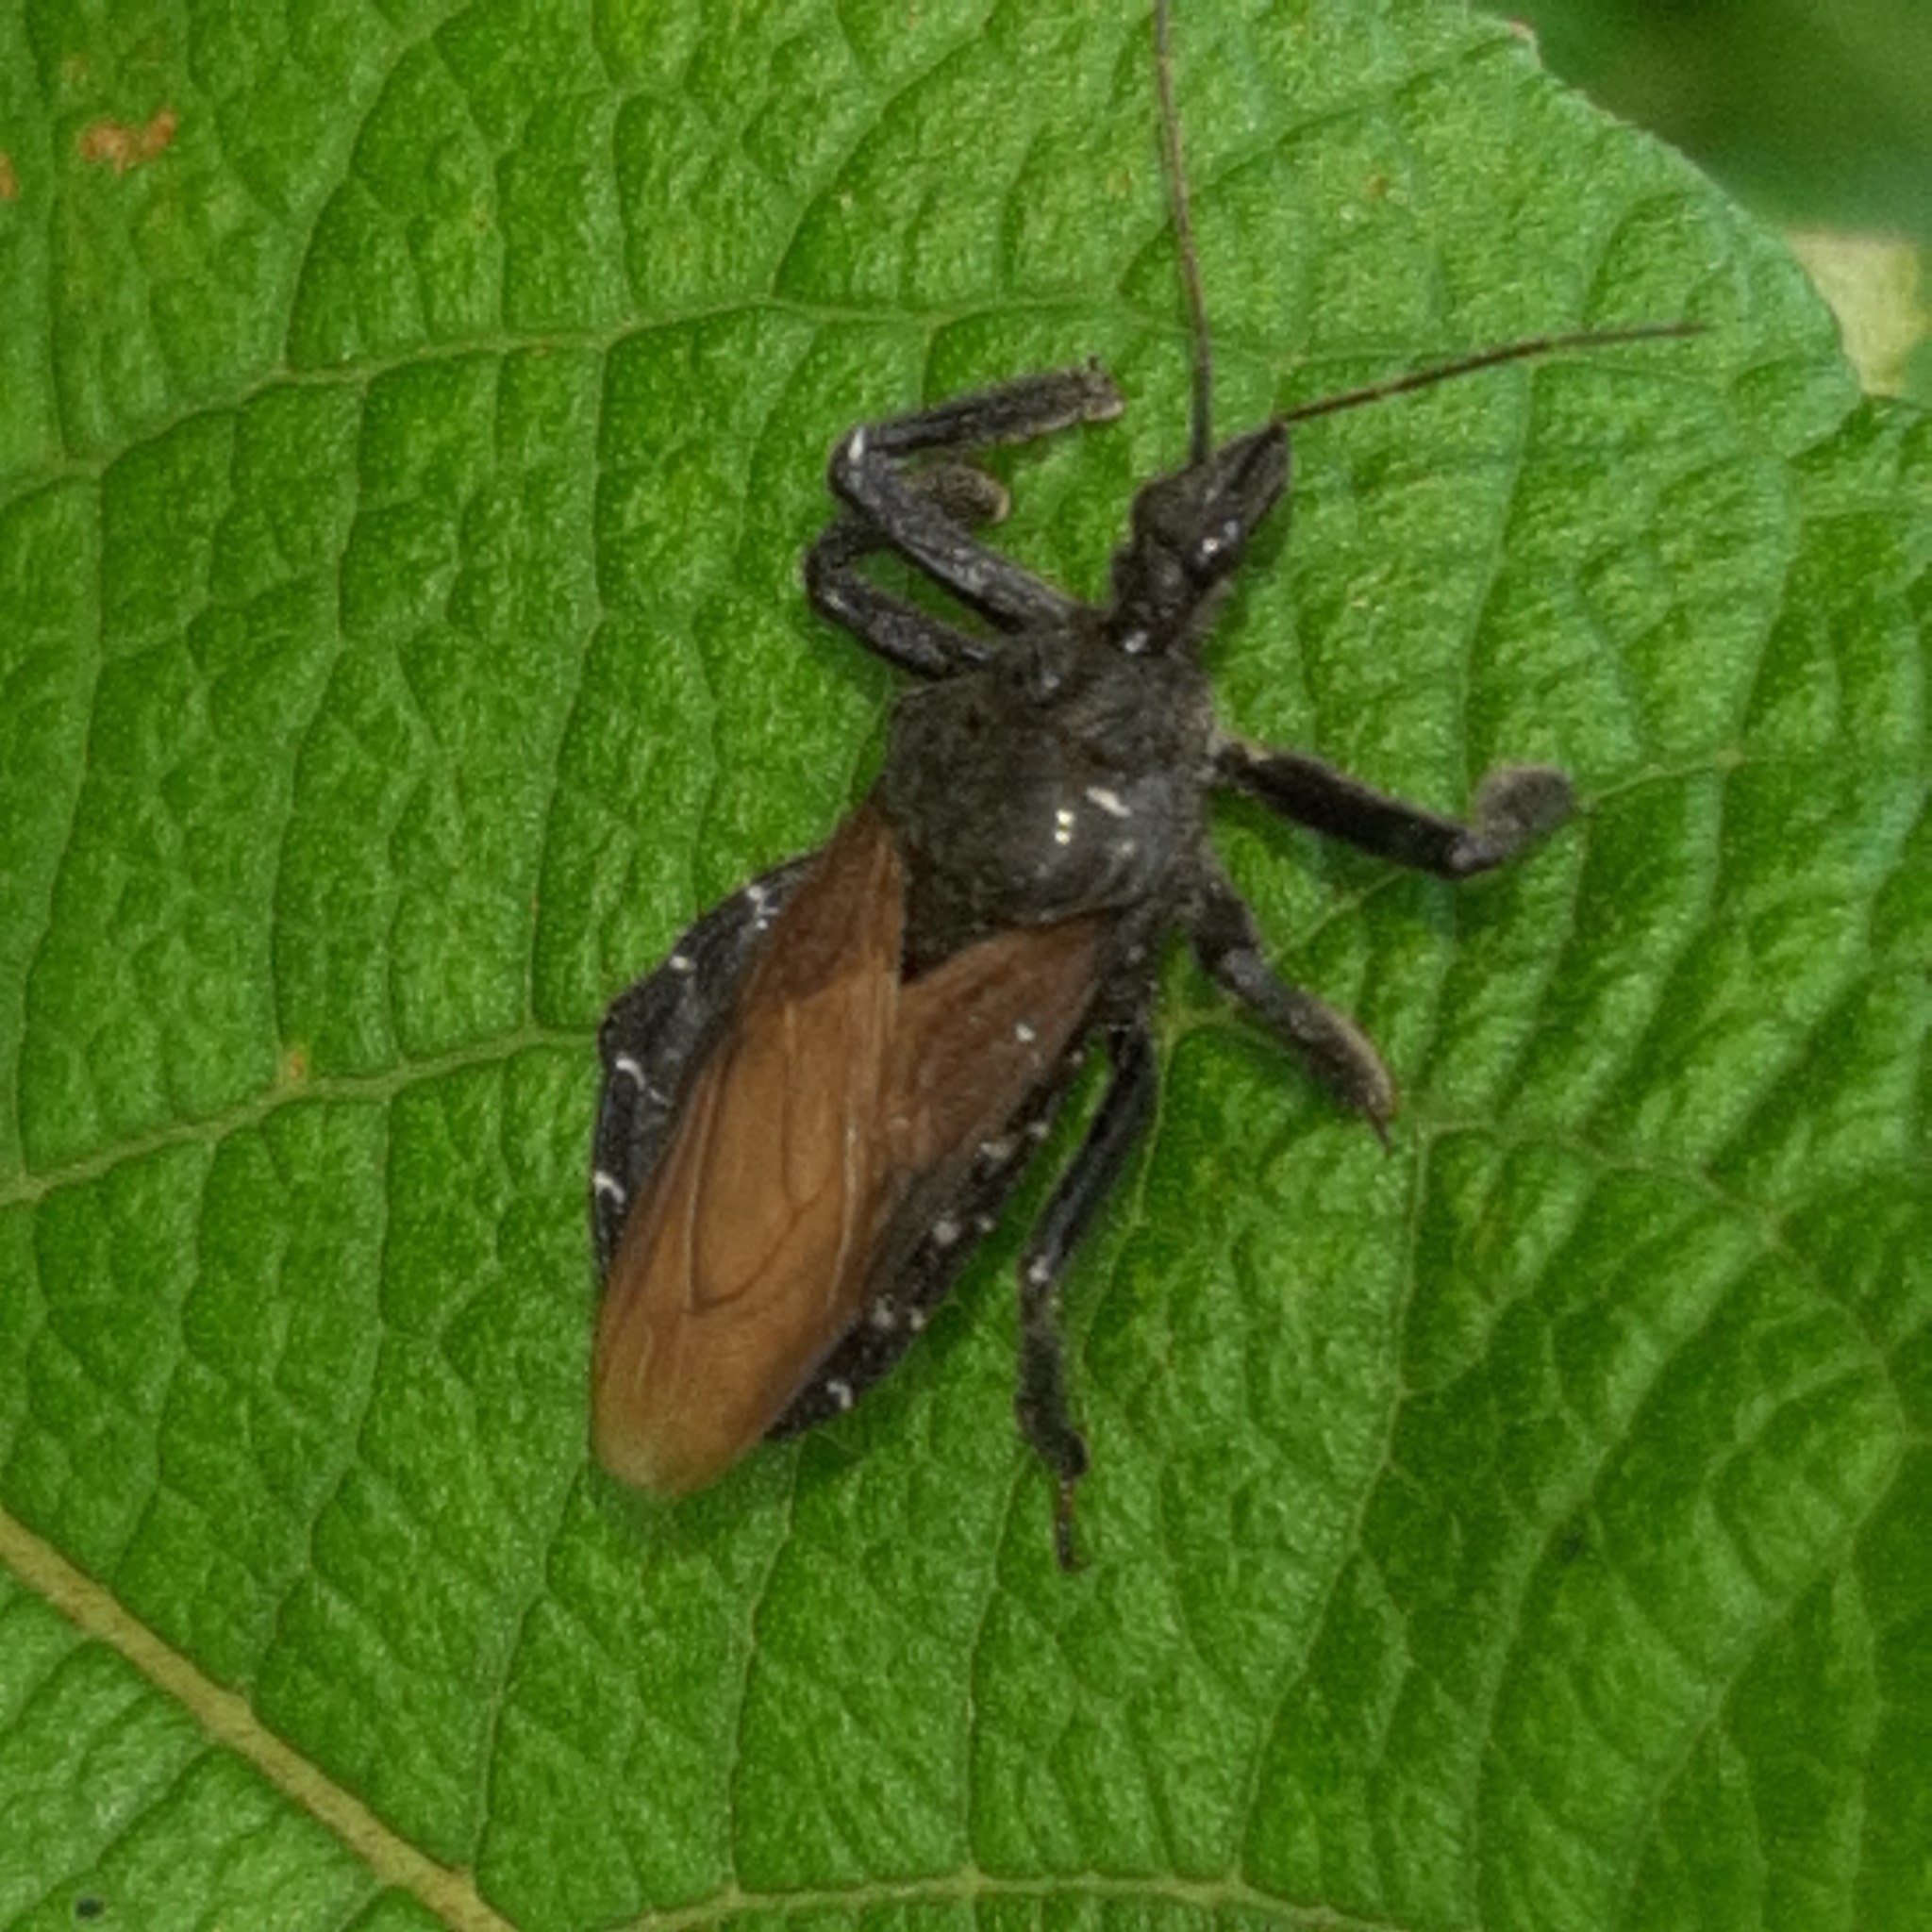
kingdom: Animalia
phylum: Arthropoda
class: Insecta
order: Hemiptera
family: Reduviidae
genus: Apiomerus
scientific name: Apiomerus subpiceus
